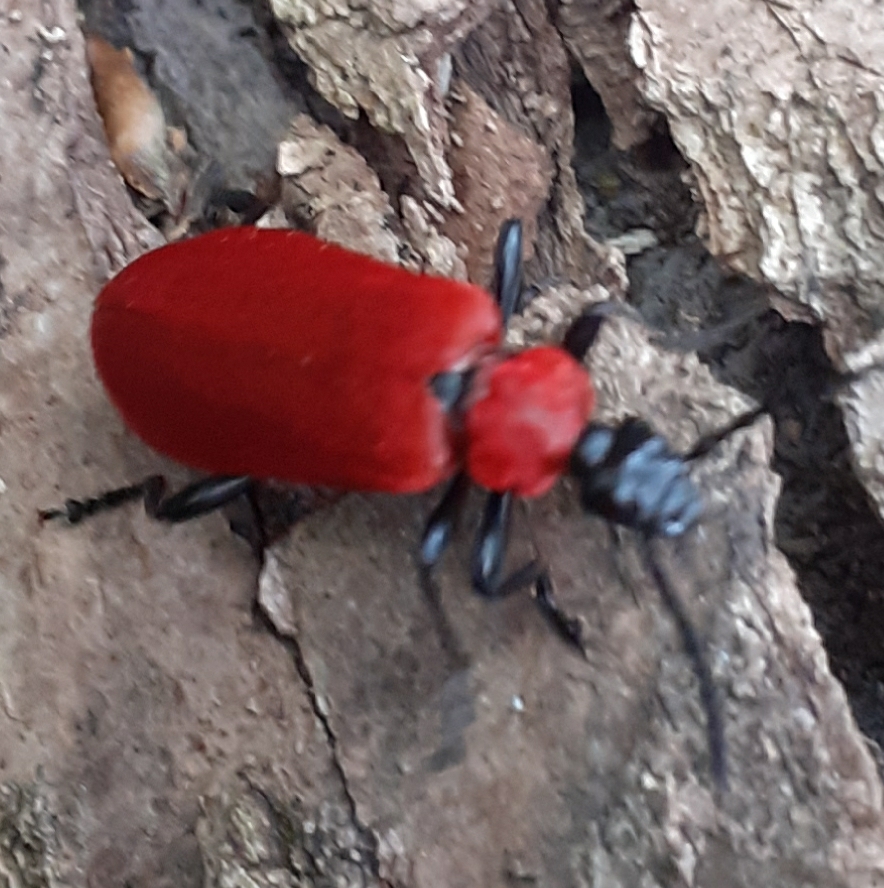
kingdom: Animalia
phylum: Arthropoda
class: Insecta
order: Coleoptera
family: Pyrochroidae
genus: Pyrochroa
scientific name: Pyrochroa coccinea
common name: Black-headed cardinal beetle
